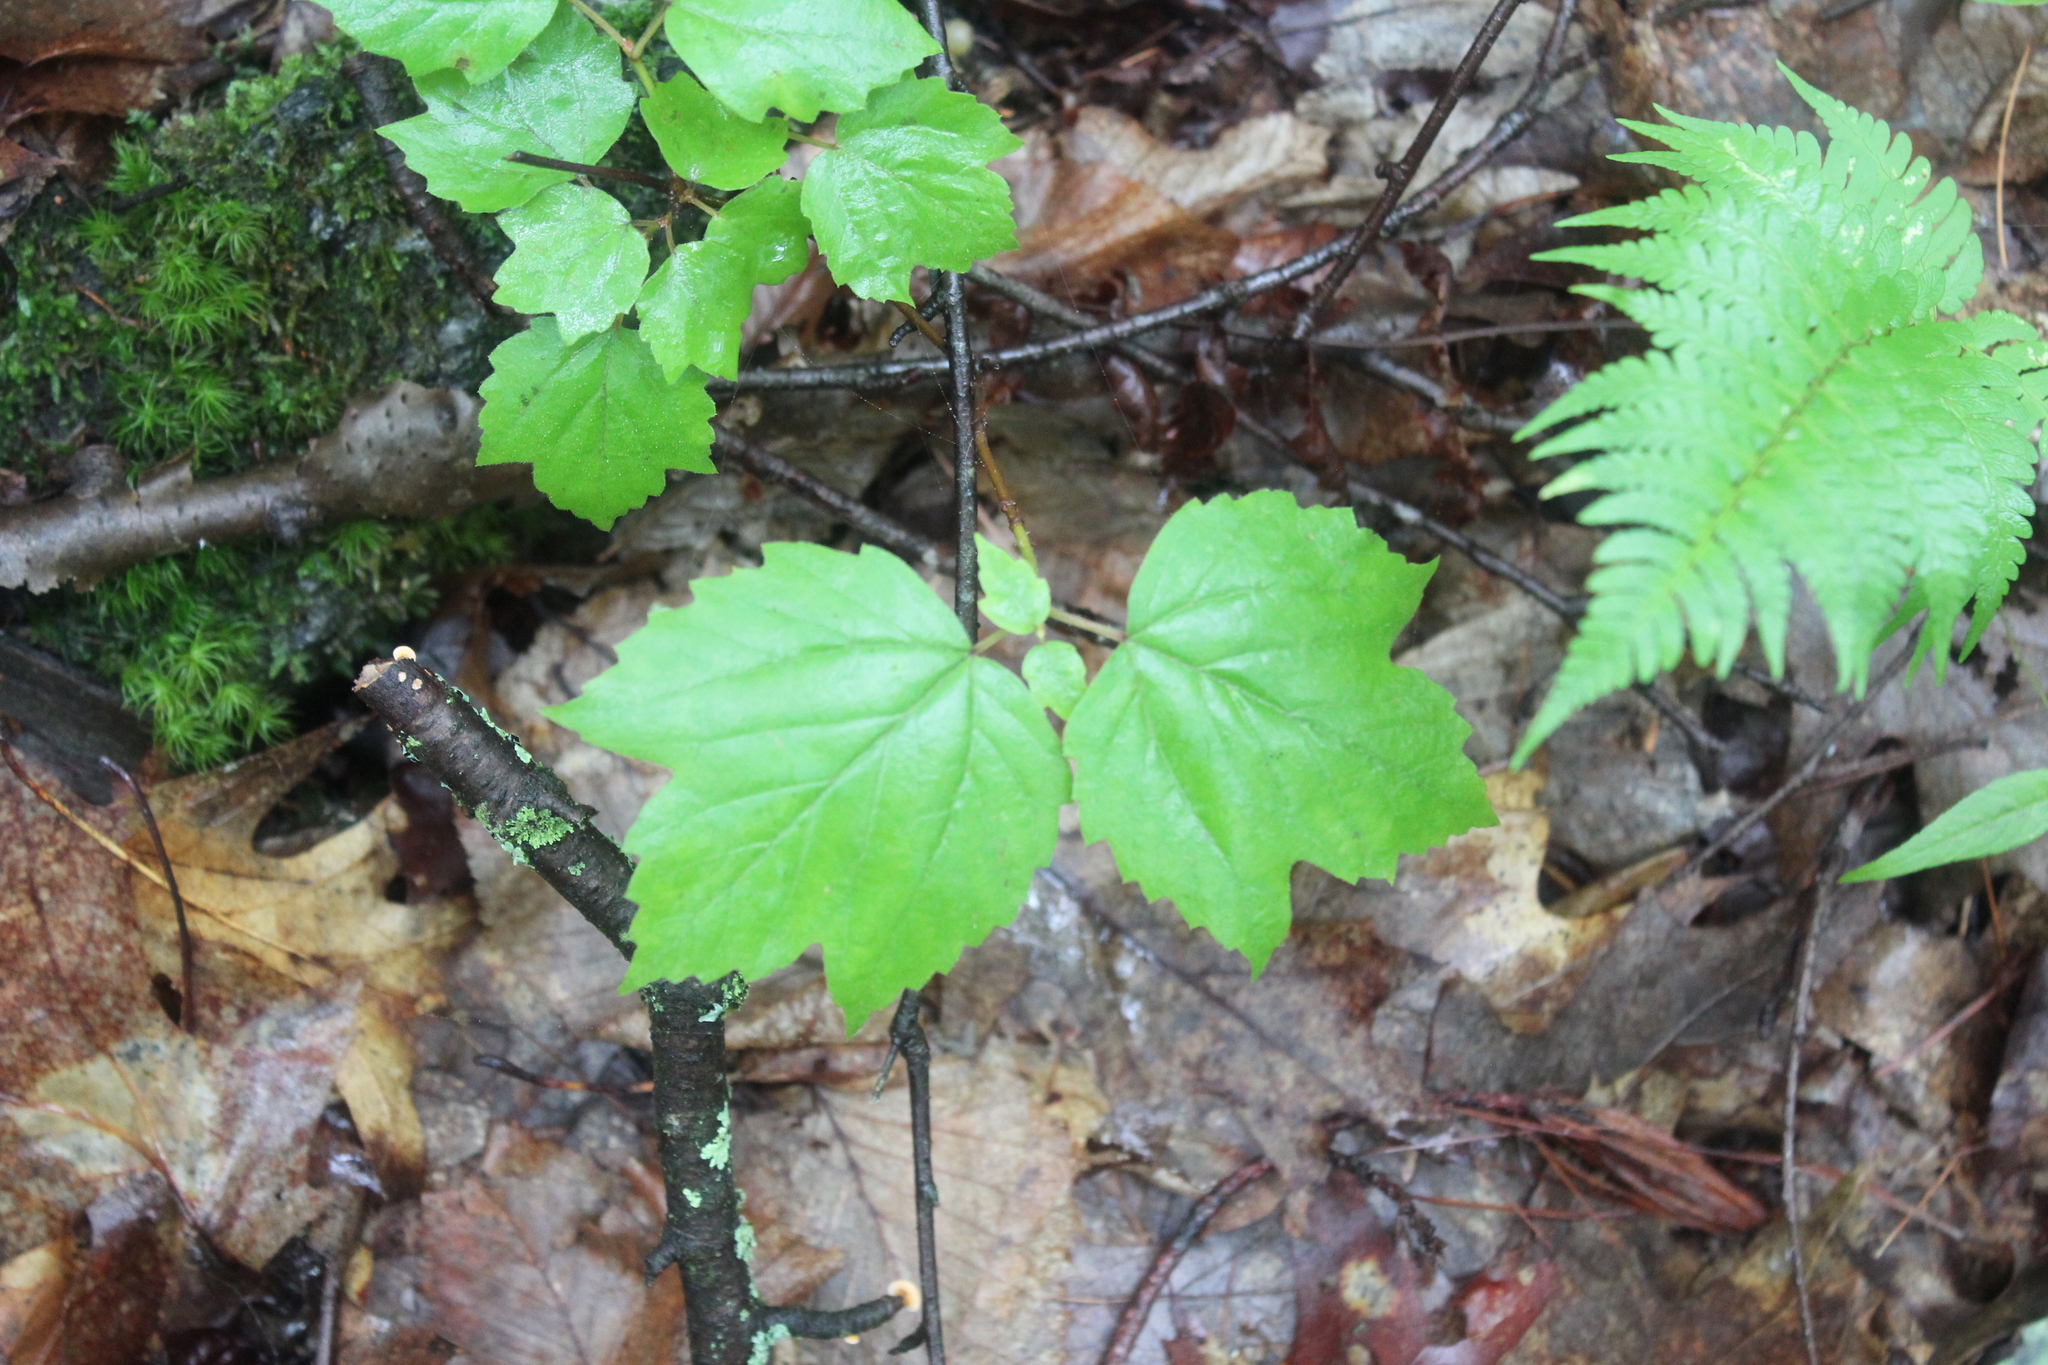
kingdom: Plantae
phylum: Tracheophyta
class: Magnoliopsida
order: Dipsacales
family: Viburnaceae
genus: Viburnum
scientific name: Viburnum acerifolium
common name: Dockmackie
